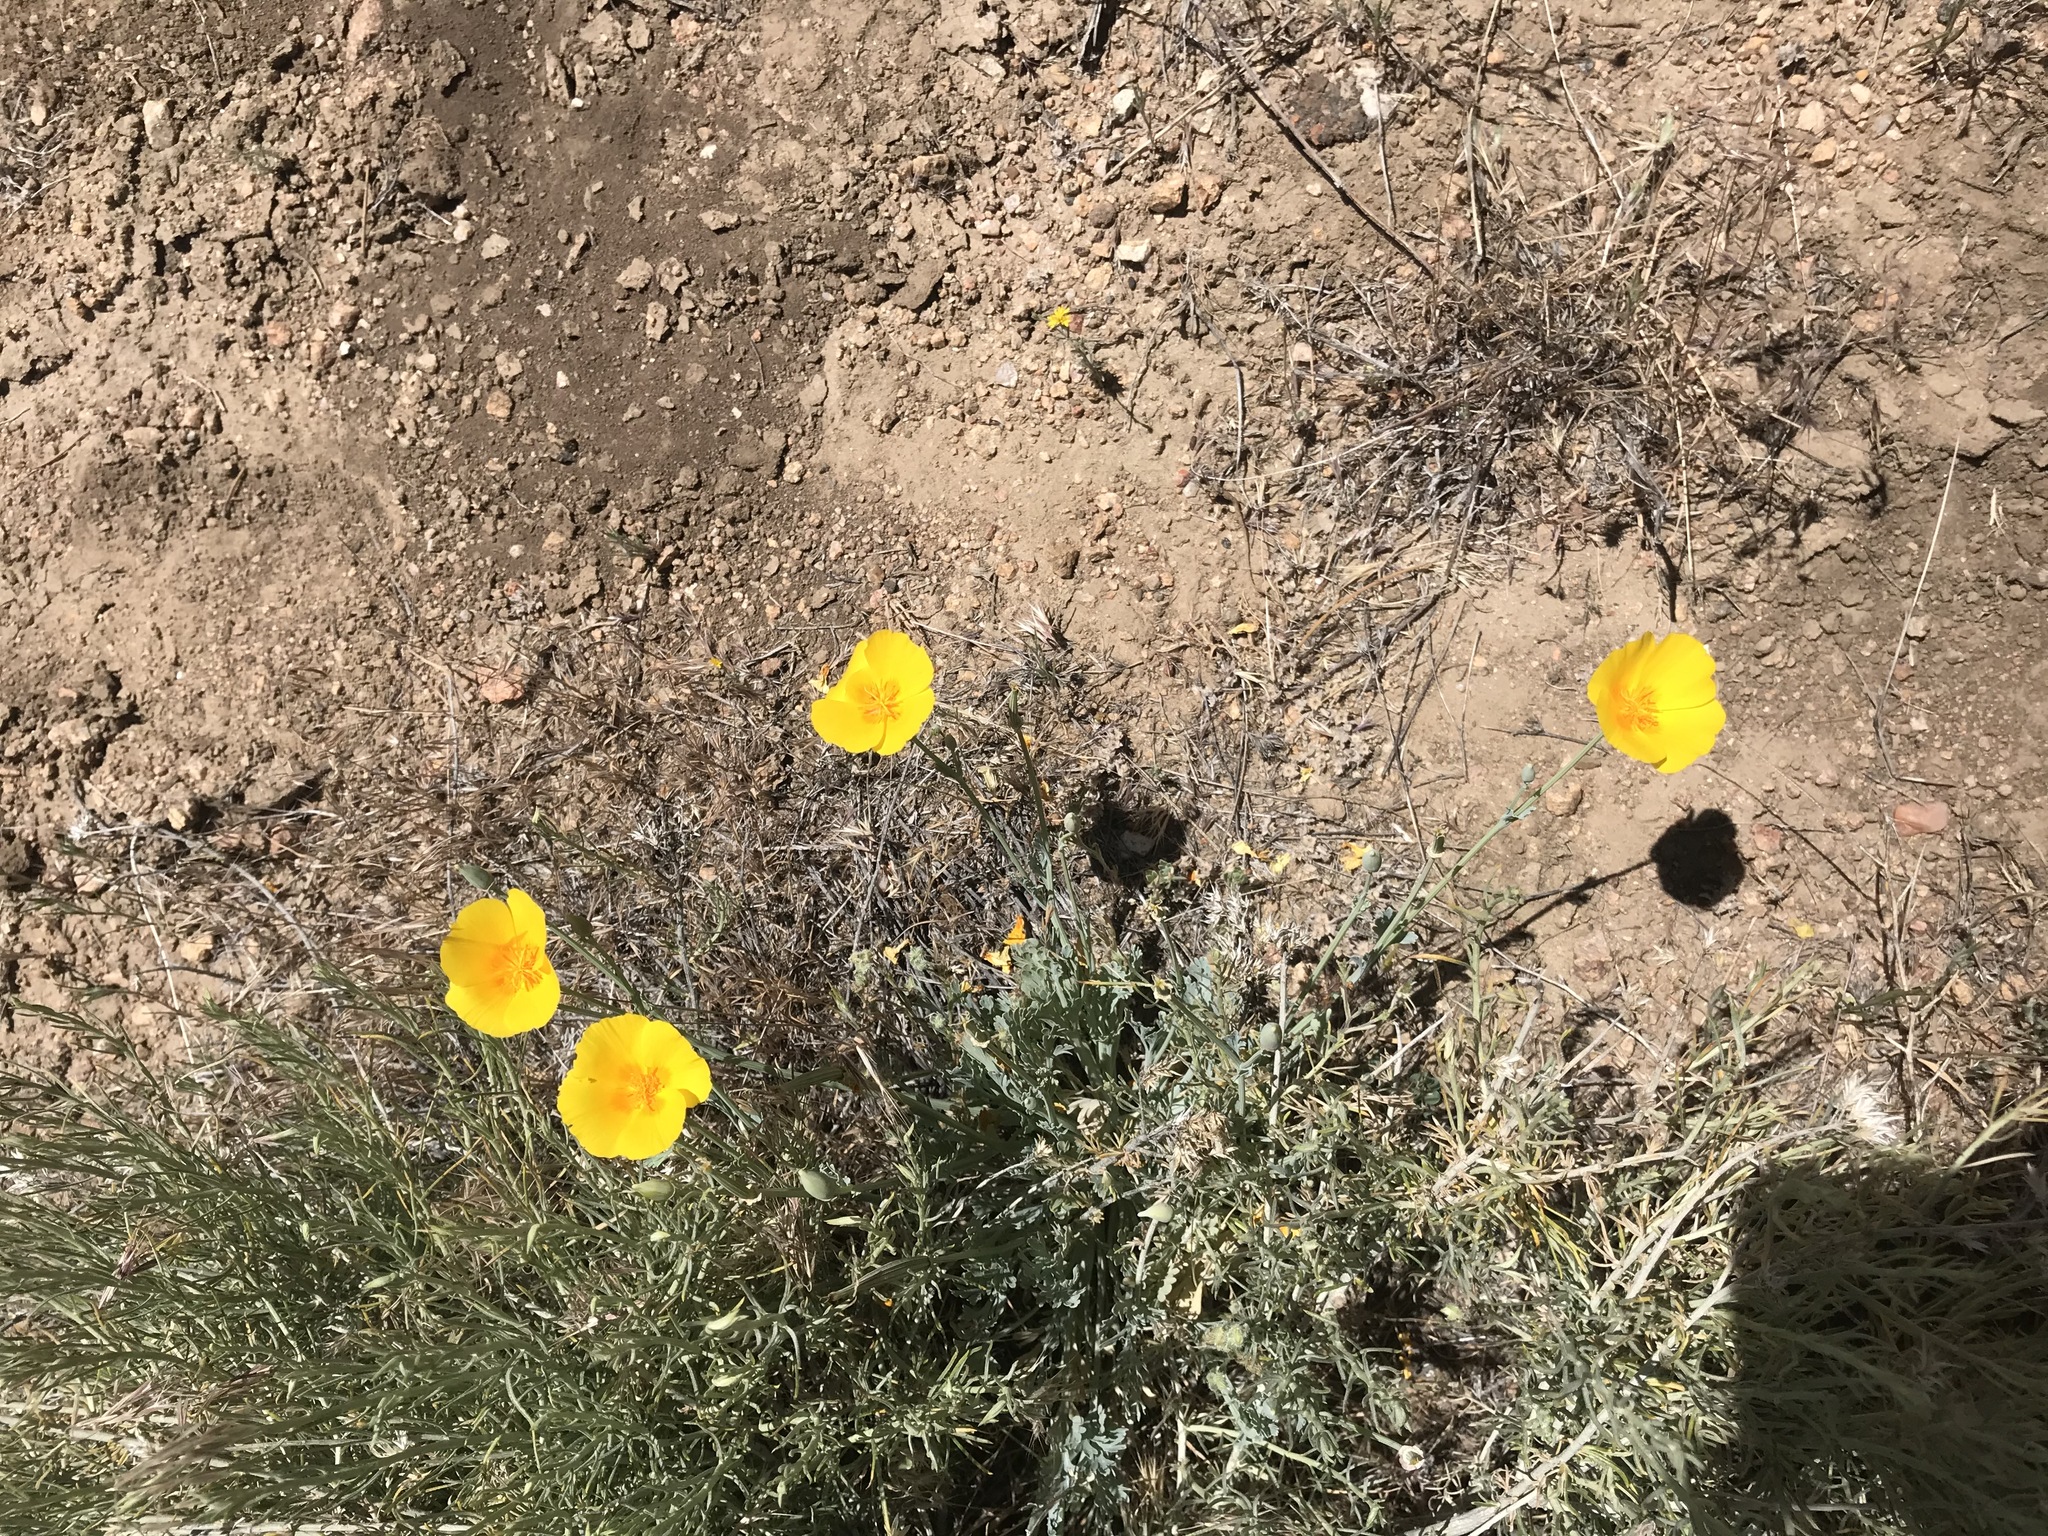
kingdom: Plantae
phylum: Tracheophyta
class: Magnoliopsida
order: Ranunculales
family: Papaveraceae
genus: Eschscholzia
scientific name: Eschscholzia californica
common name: California poppy
